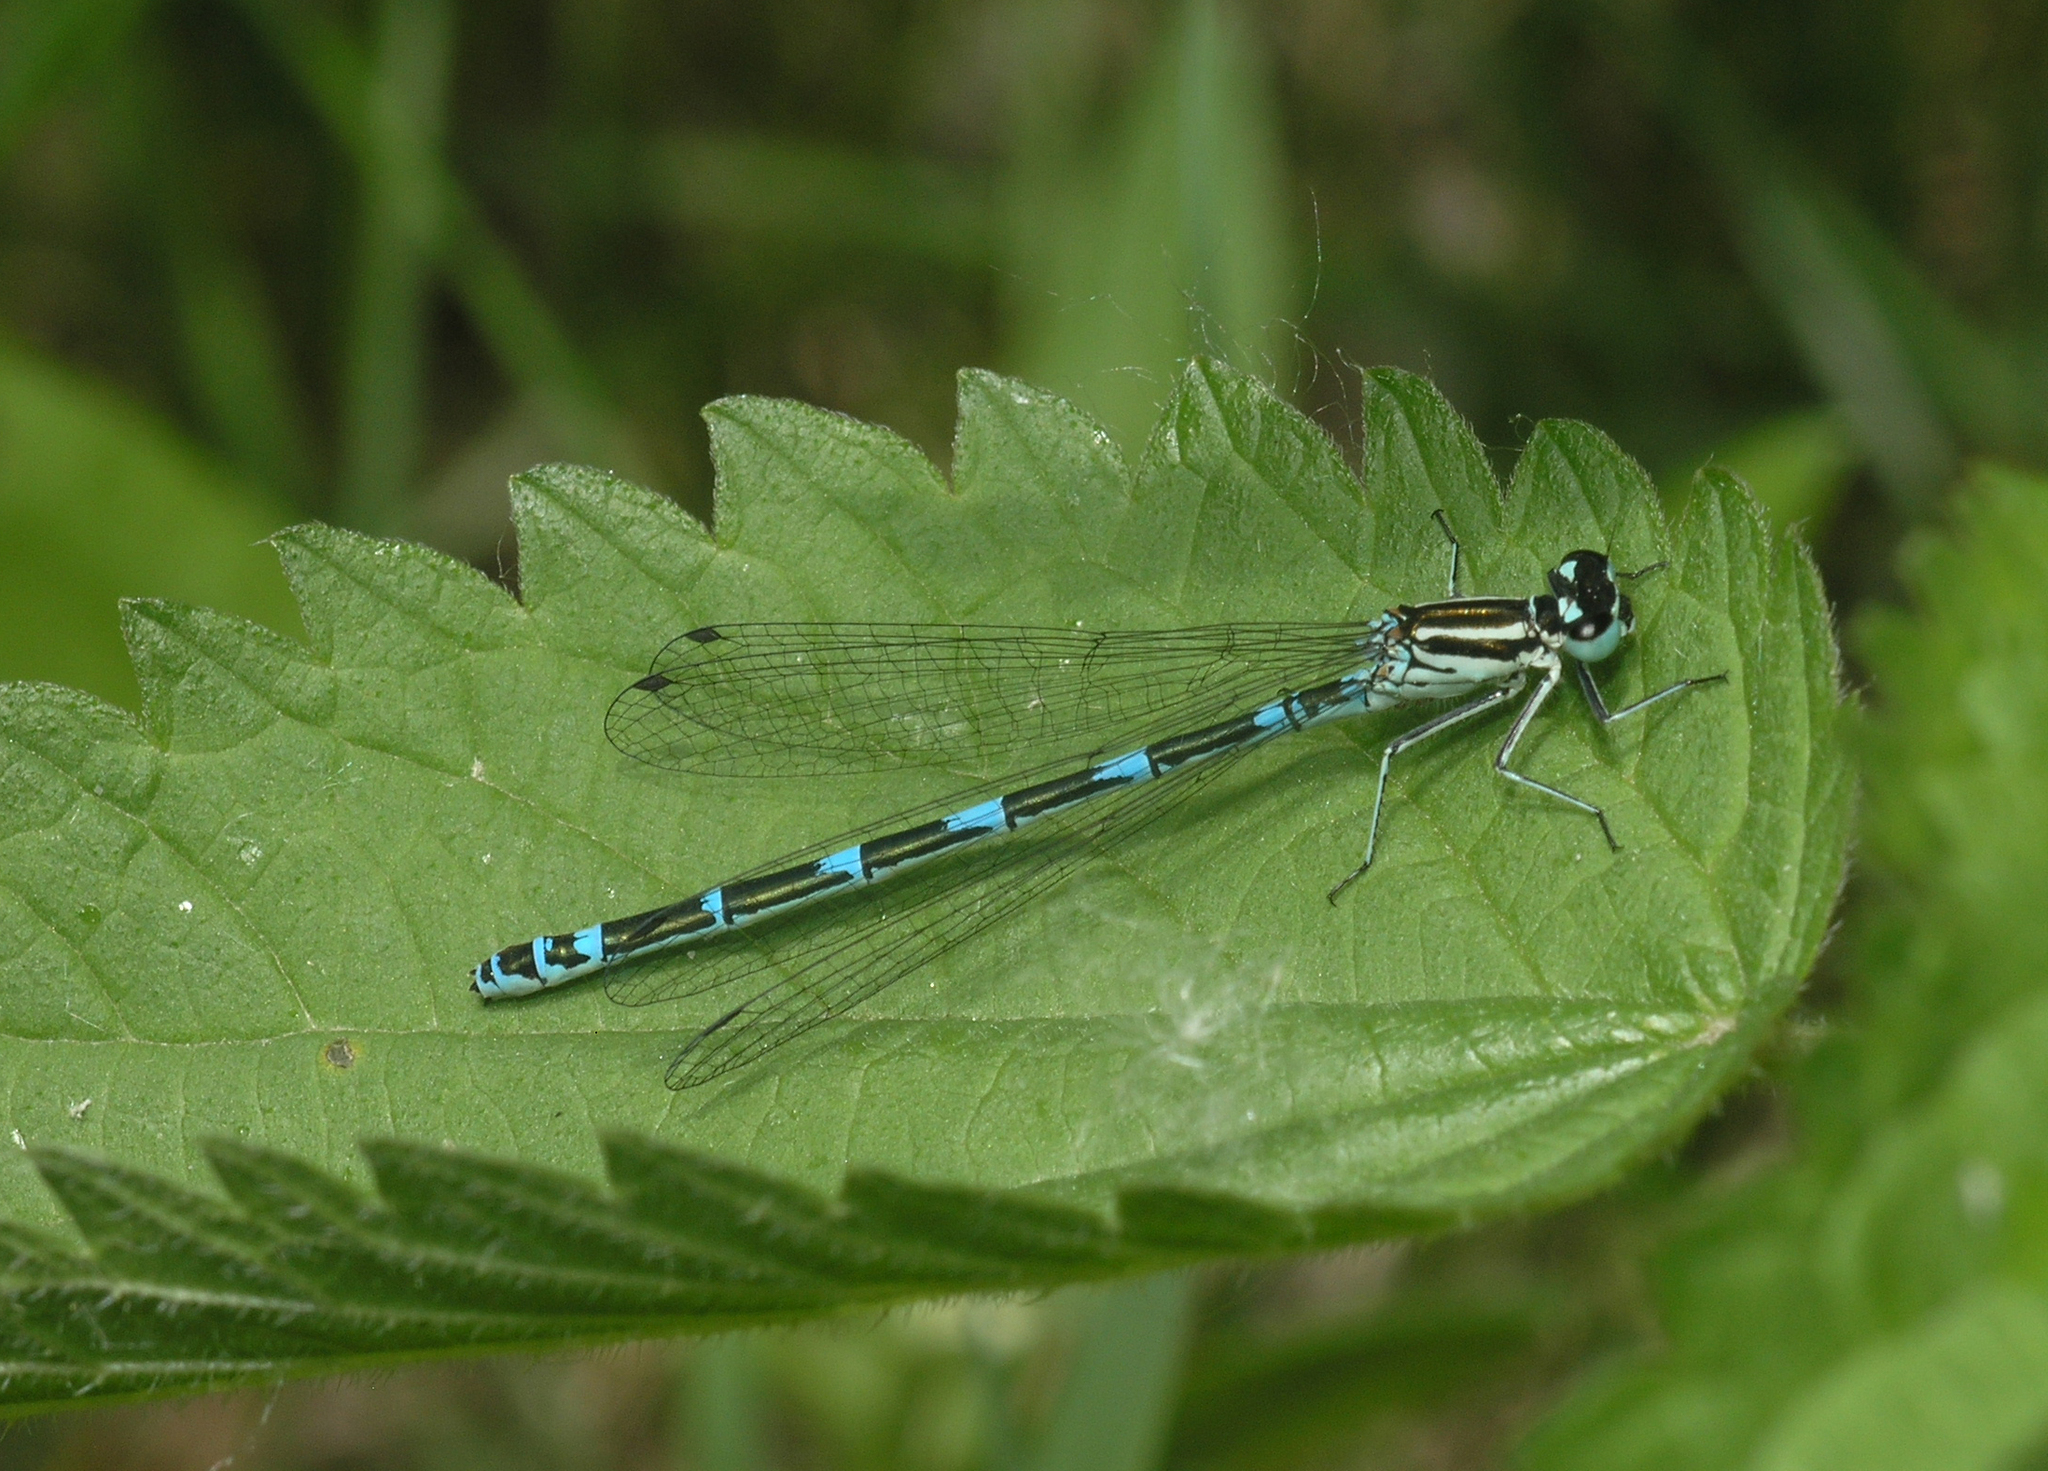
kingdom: Animalia
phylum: Arthropoda
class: Insecta
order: Odonata
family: Coenagrionidae
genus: Coenagrion
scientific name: Coenagrion puella
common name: Azure damselfly
